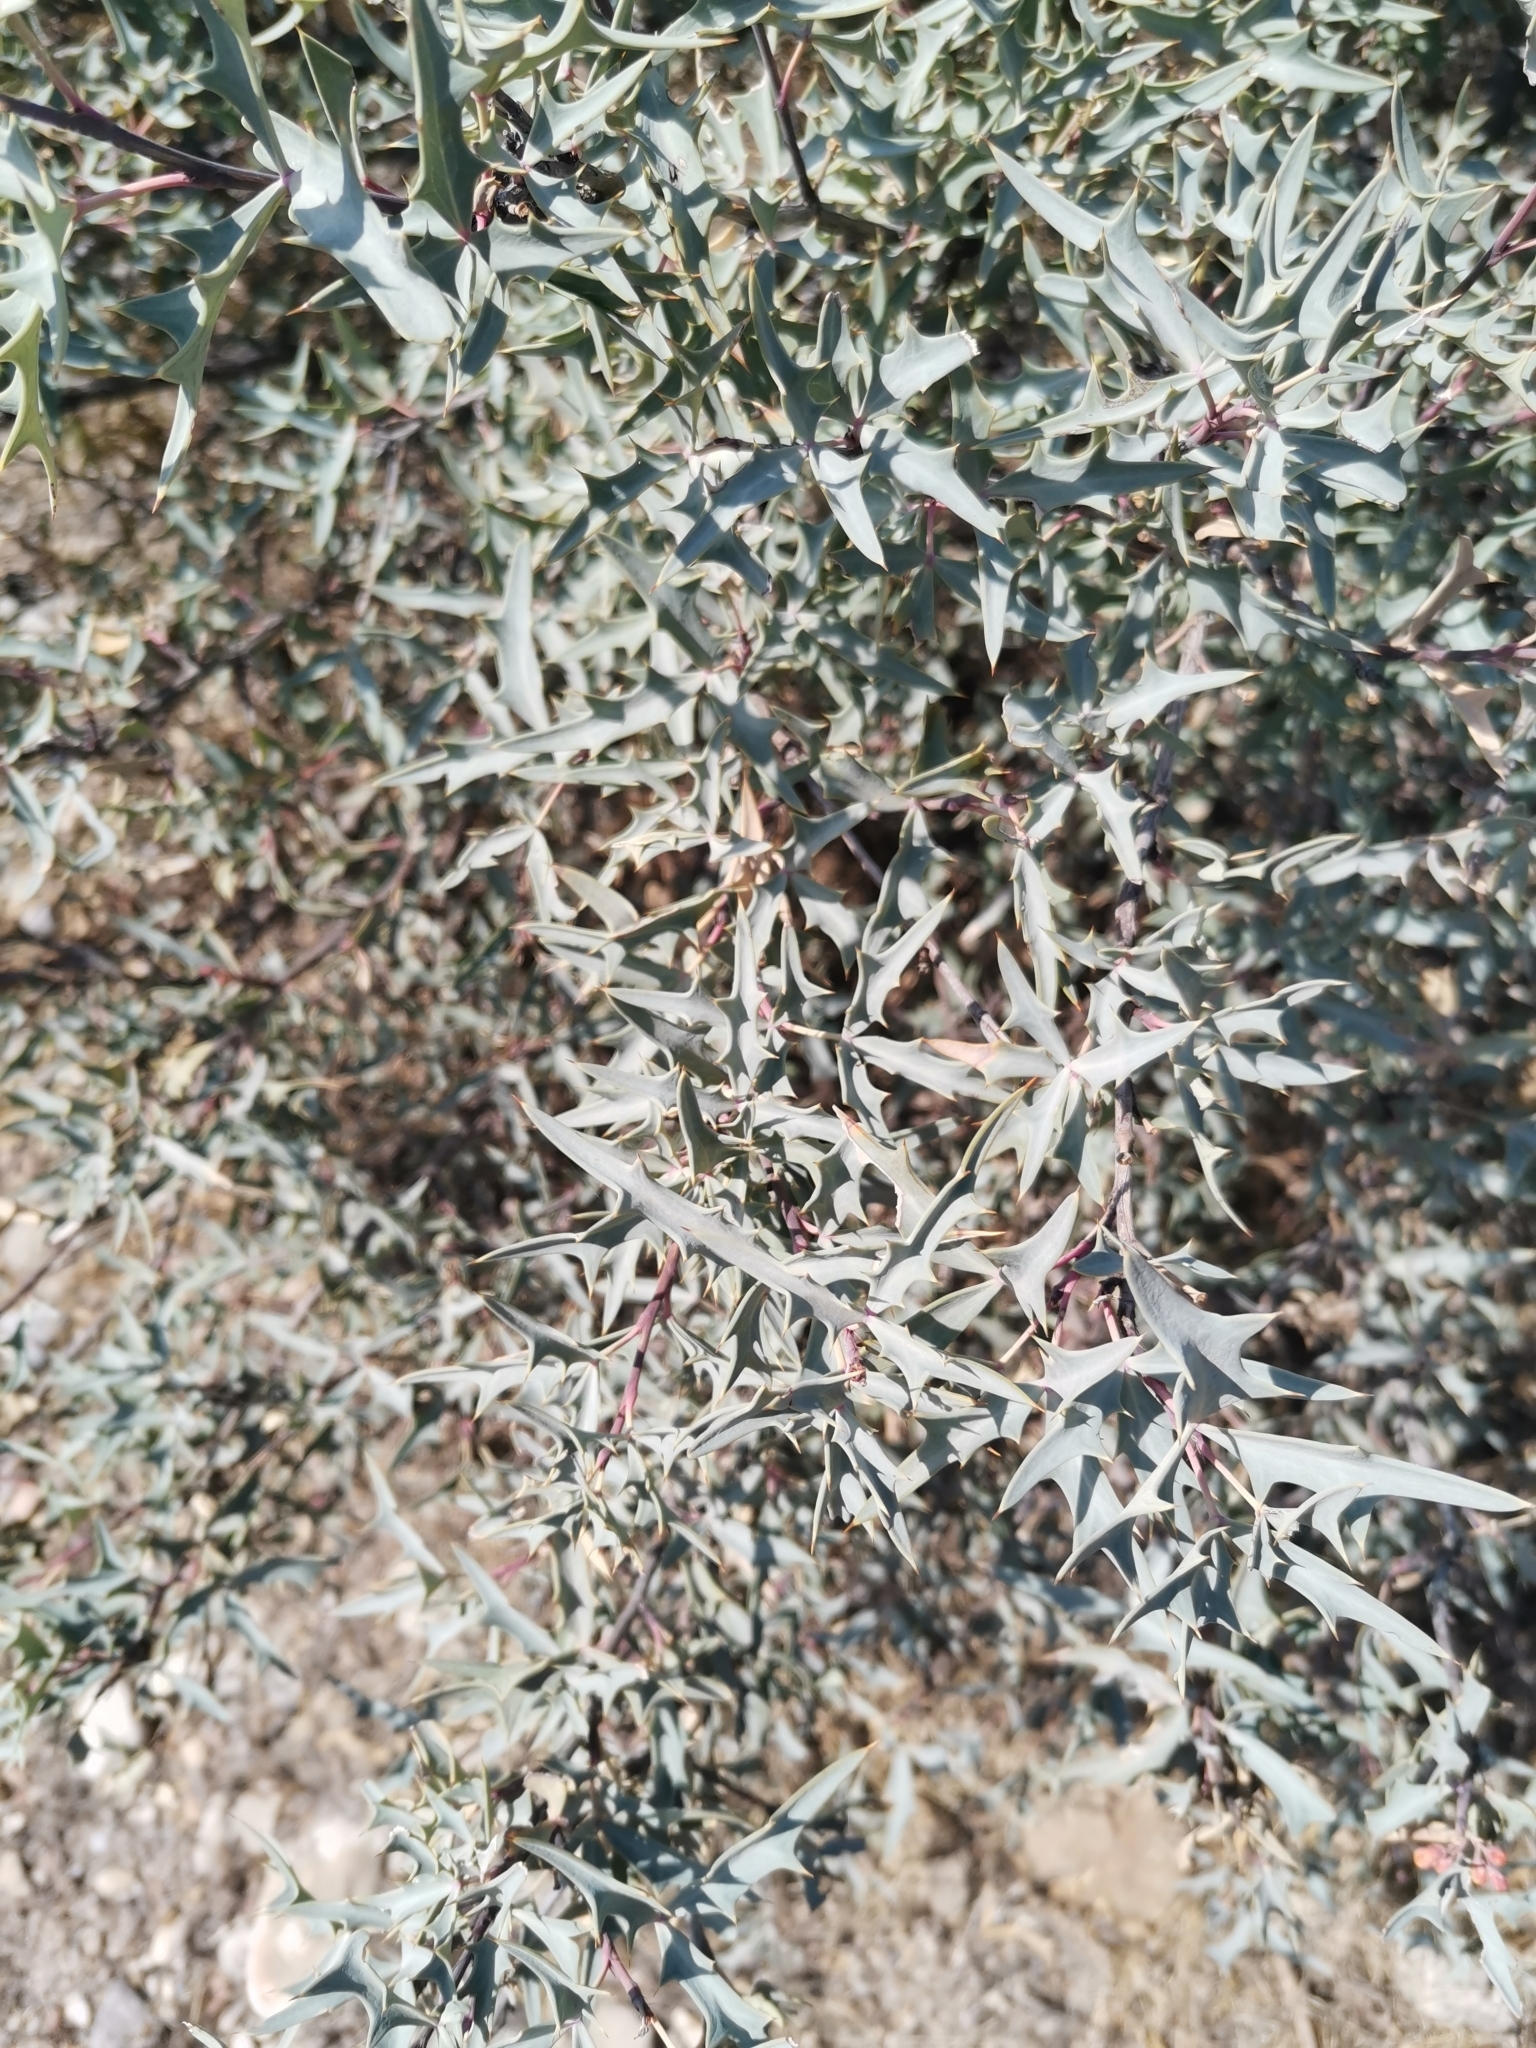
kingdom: Plantae
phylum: Tracheophyta
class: Magnoliopsida
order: Ranunculales
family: Berberidaceae
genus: Alloberberis
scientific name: Alloberberis trifoliolata
